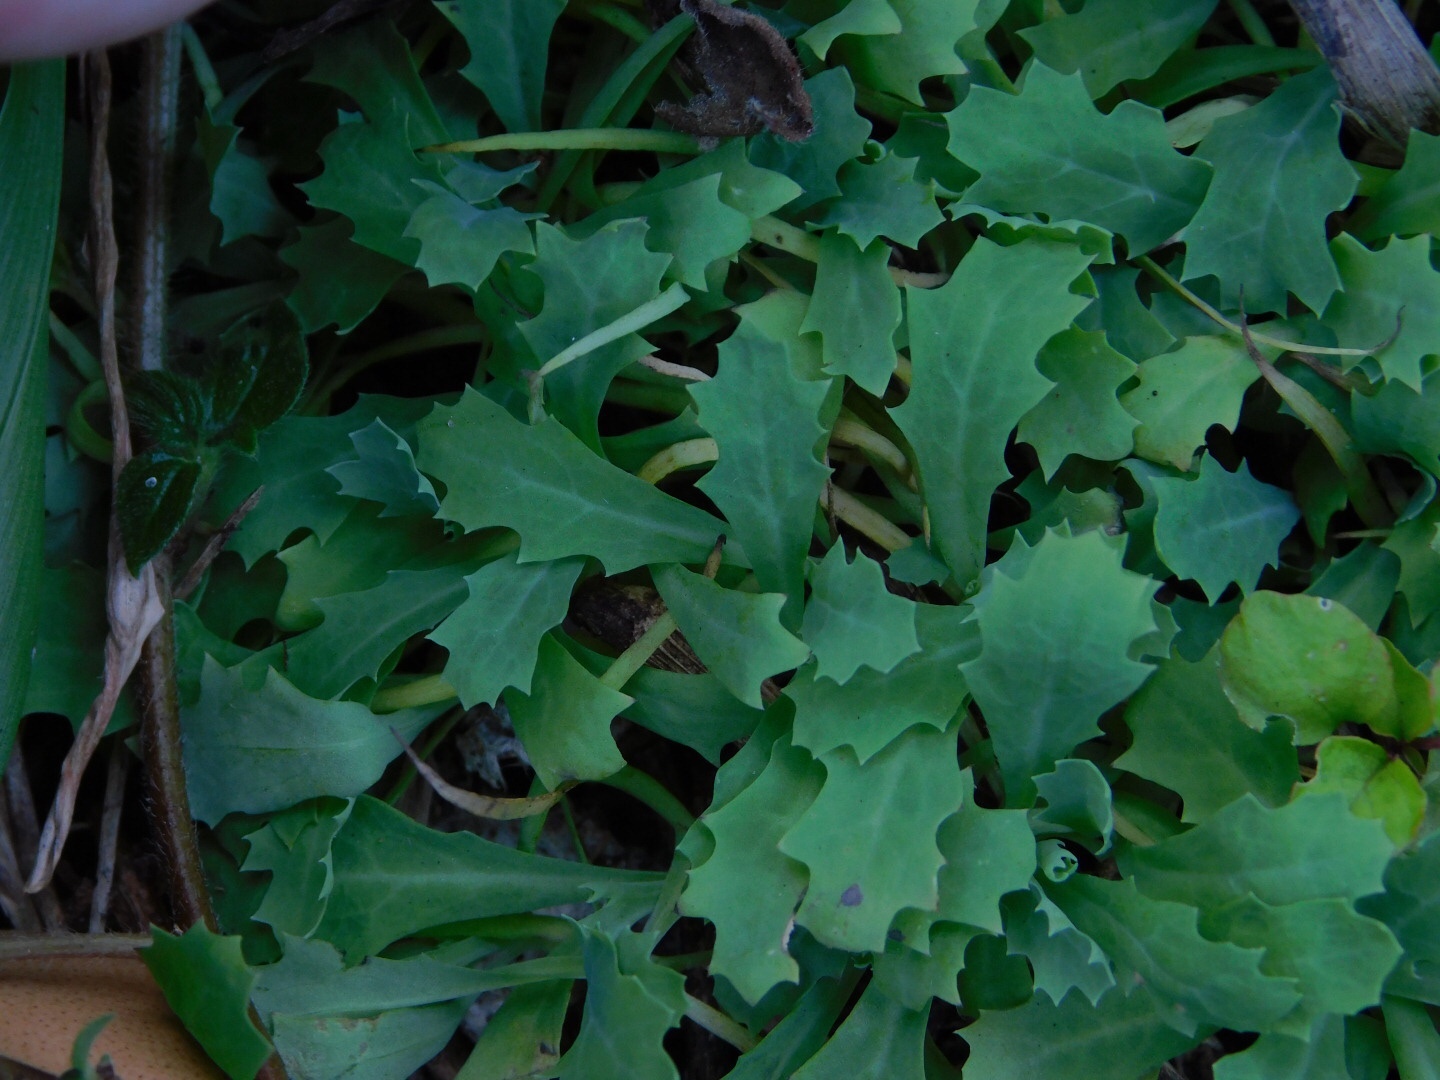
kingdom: Plantae
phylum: Tracheophyta
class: Magnoliopsida
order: Ranunculales
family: Papaveraceae
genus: Argemone
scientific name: Argemone mexicana
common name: Mexican poppy
